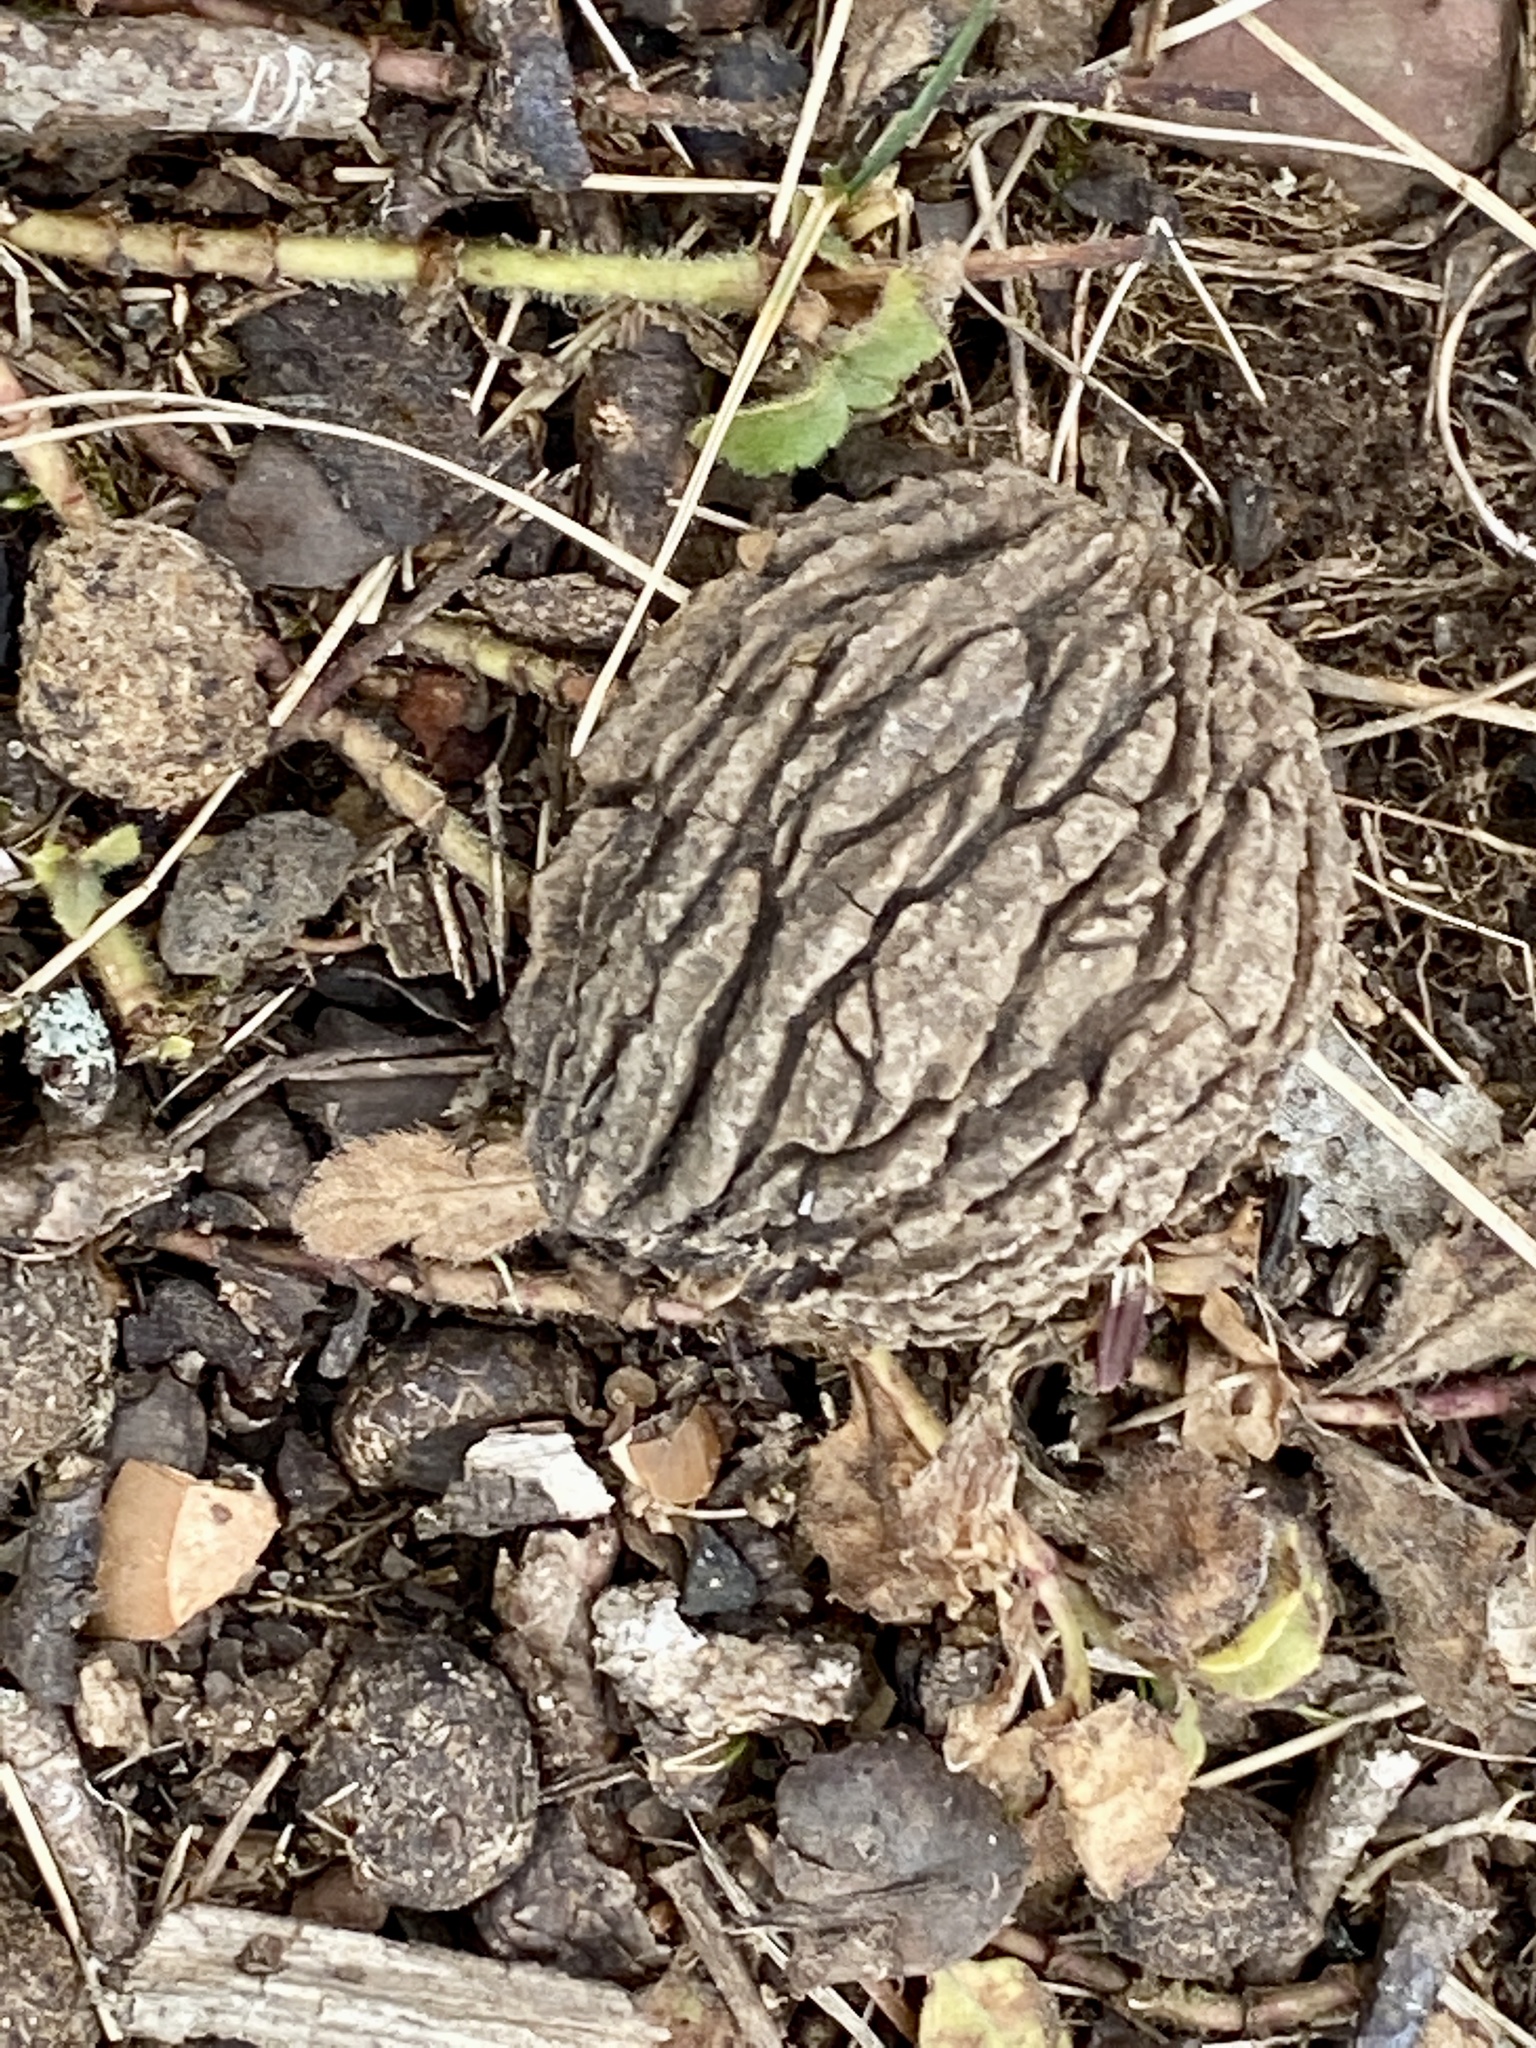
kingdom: Plantae
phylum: Tracheophyta
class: Magnoliopsida
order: Fagales
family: Juglandaceae
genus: Juglans
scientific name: Juglans nigra
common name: Black walnut
